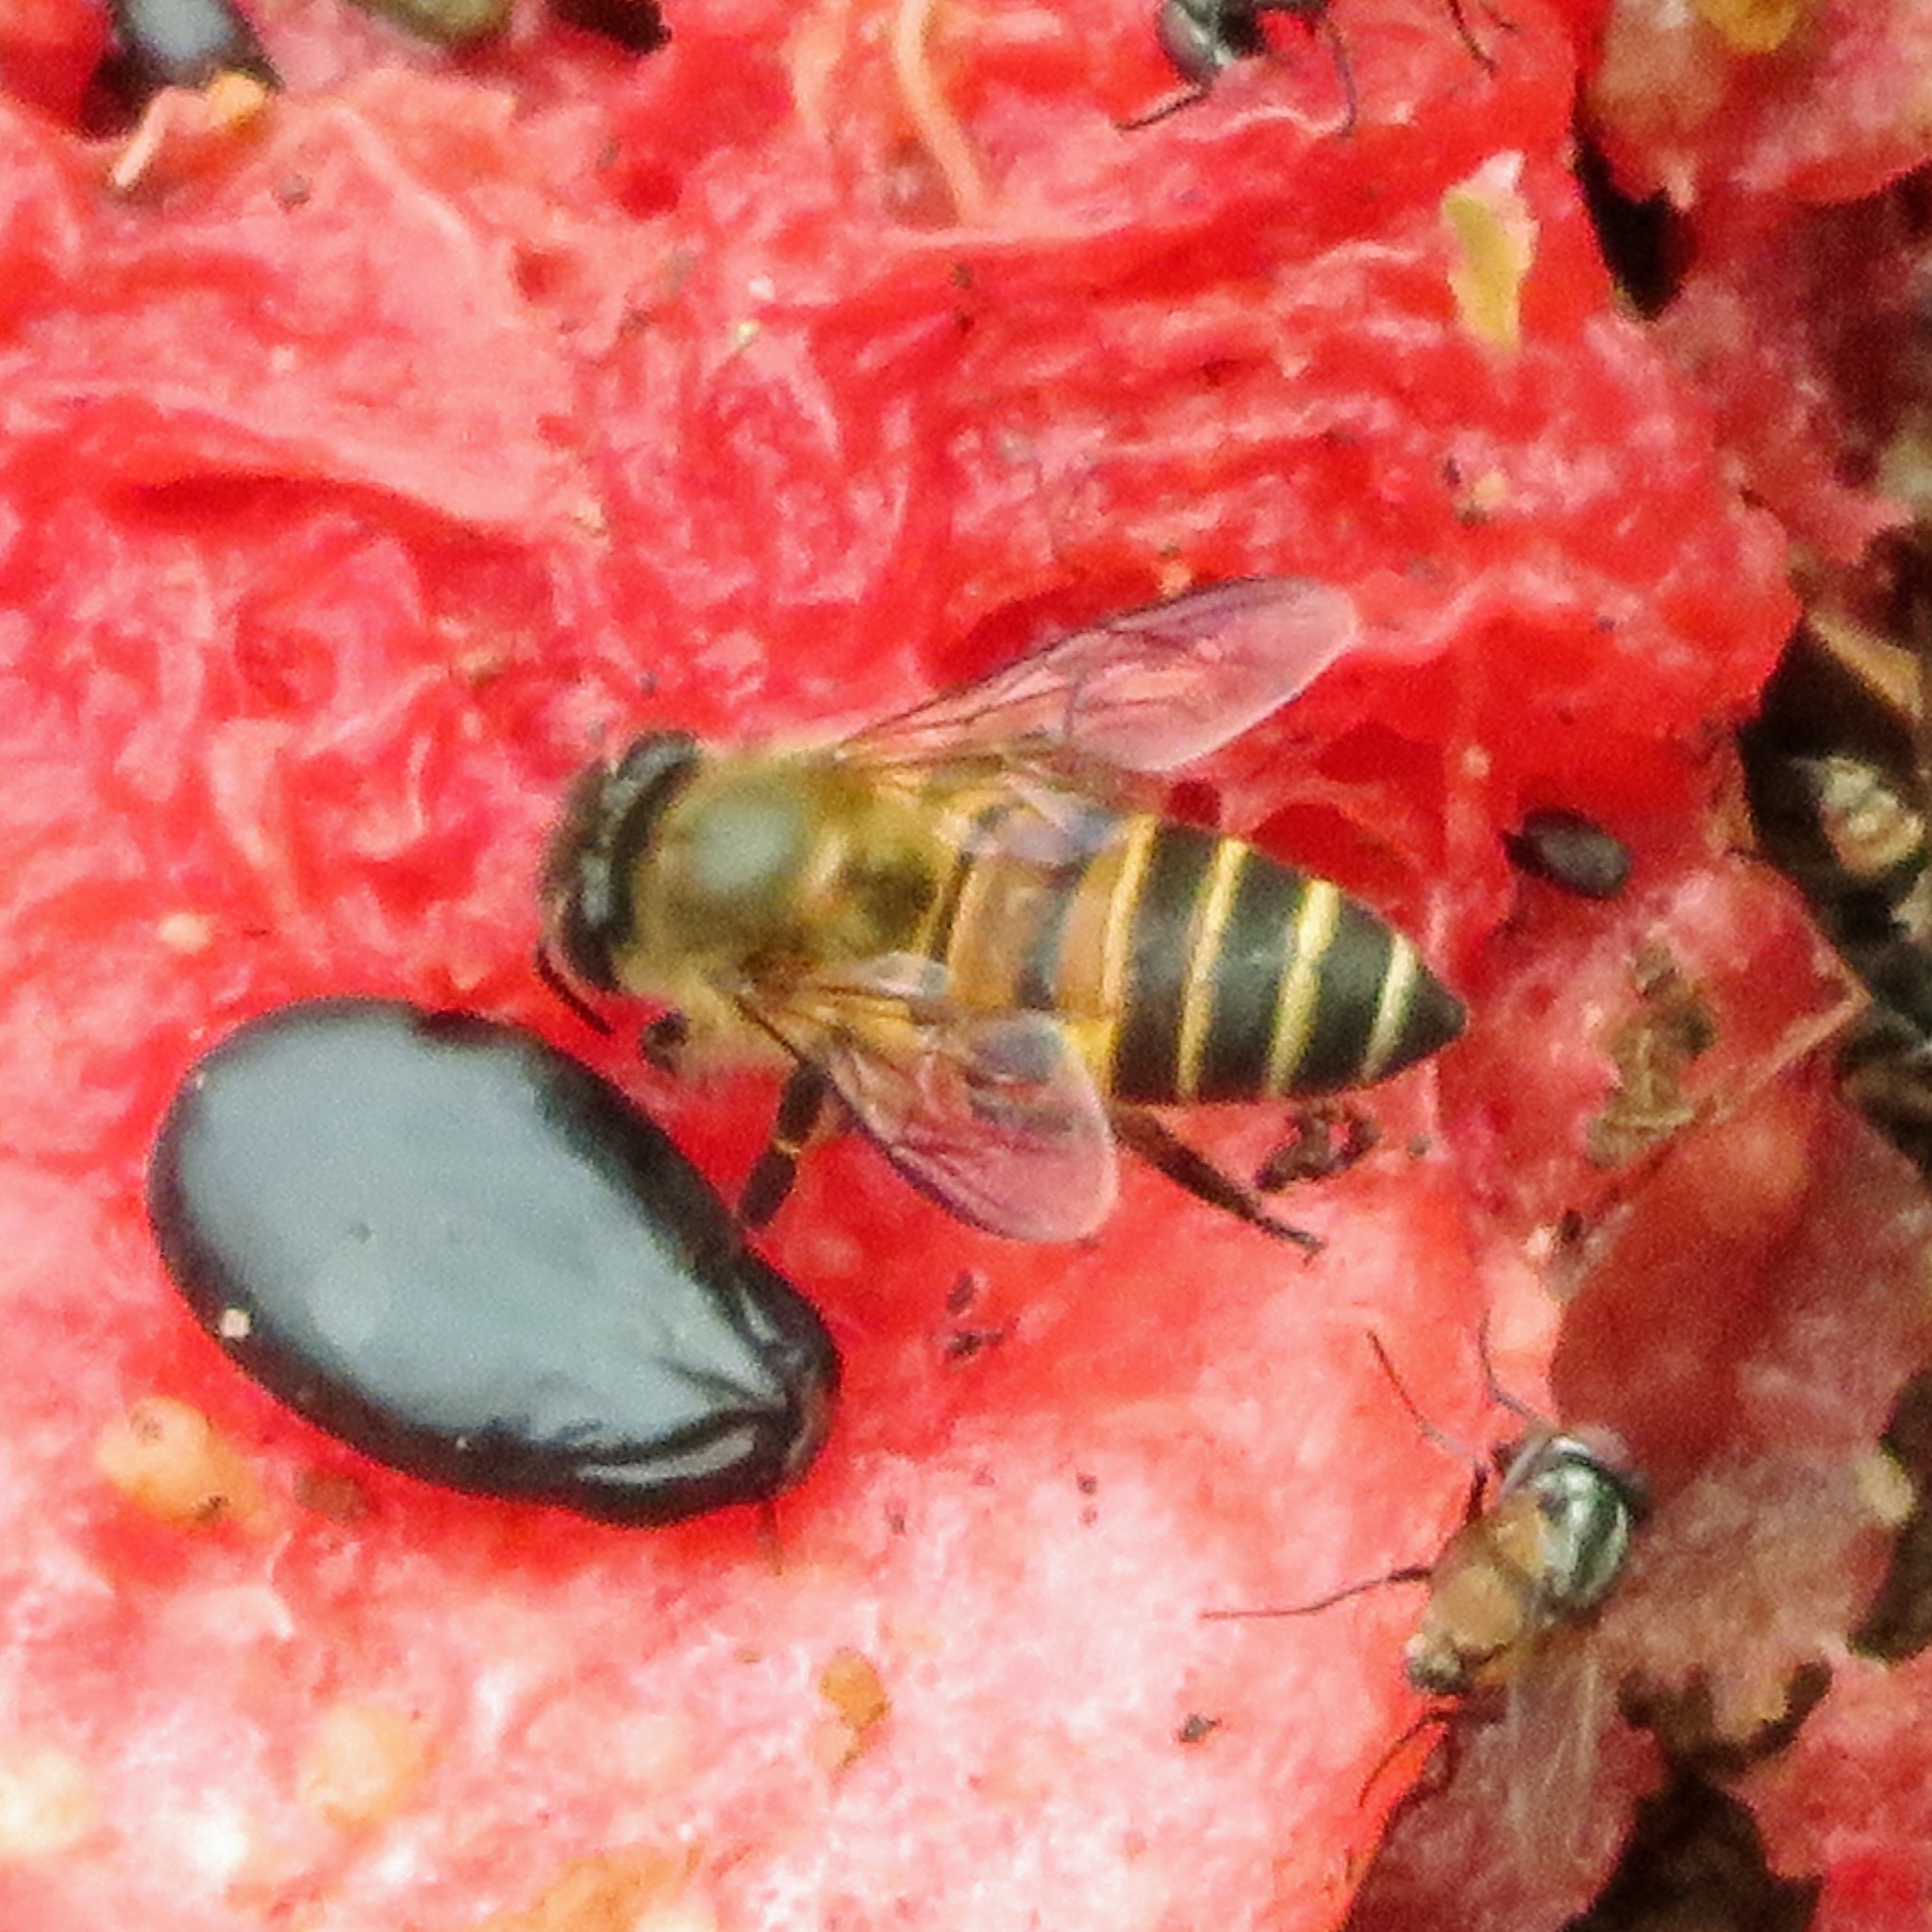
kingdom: Animalia
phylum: Arthropoda
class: Insecta
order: Hymenoptera
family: Apidae
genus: Apis
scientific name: Apis cerana
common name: Honey bee
